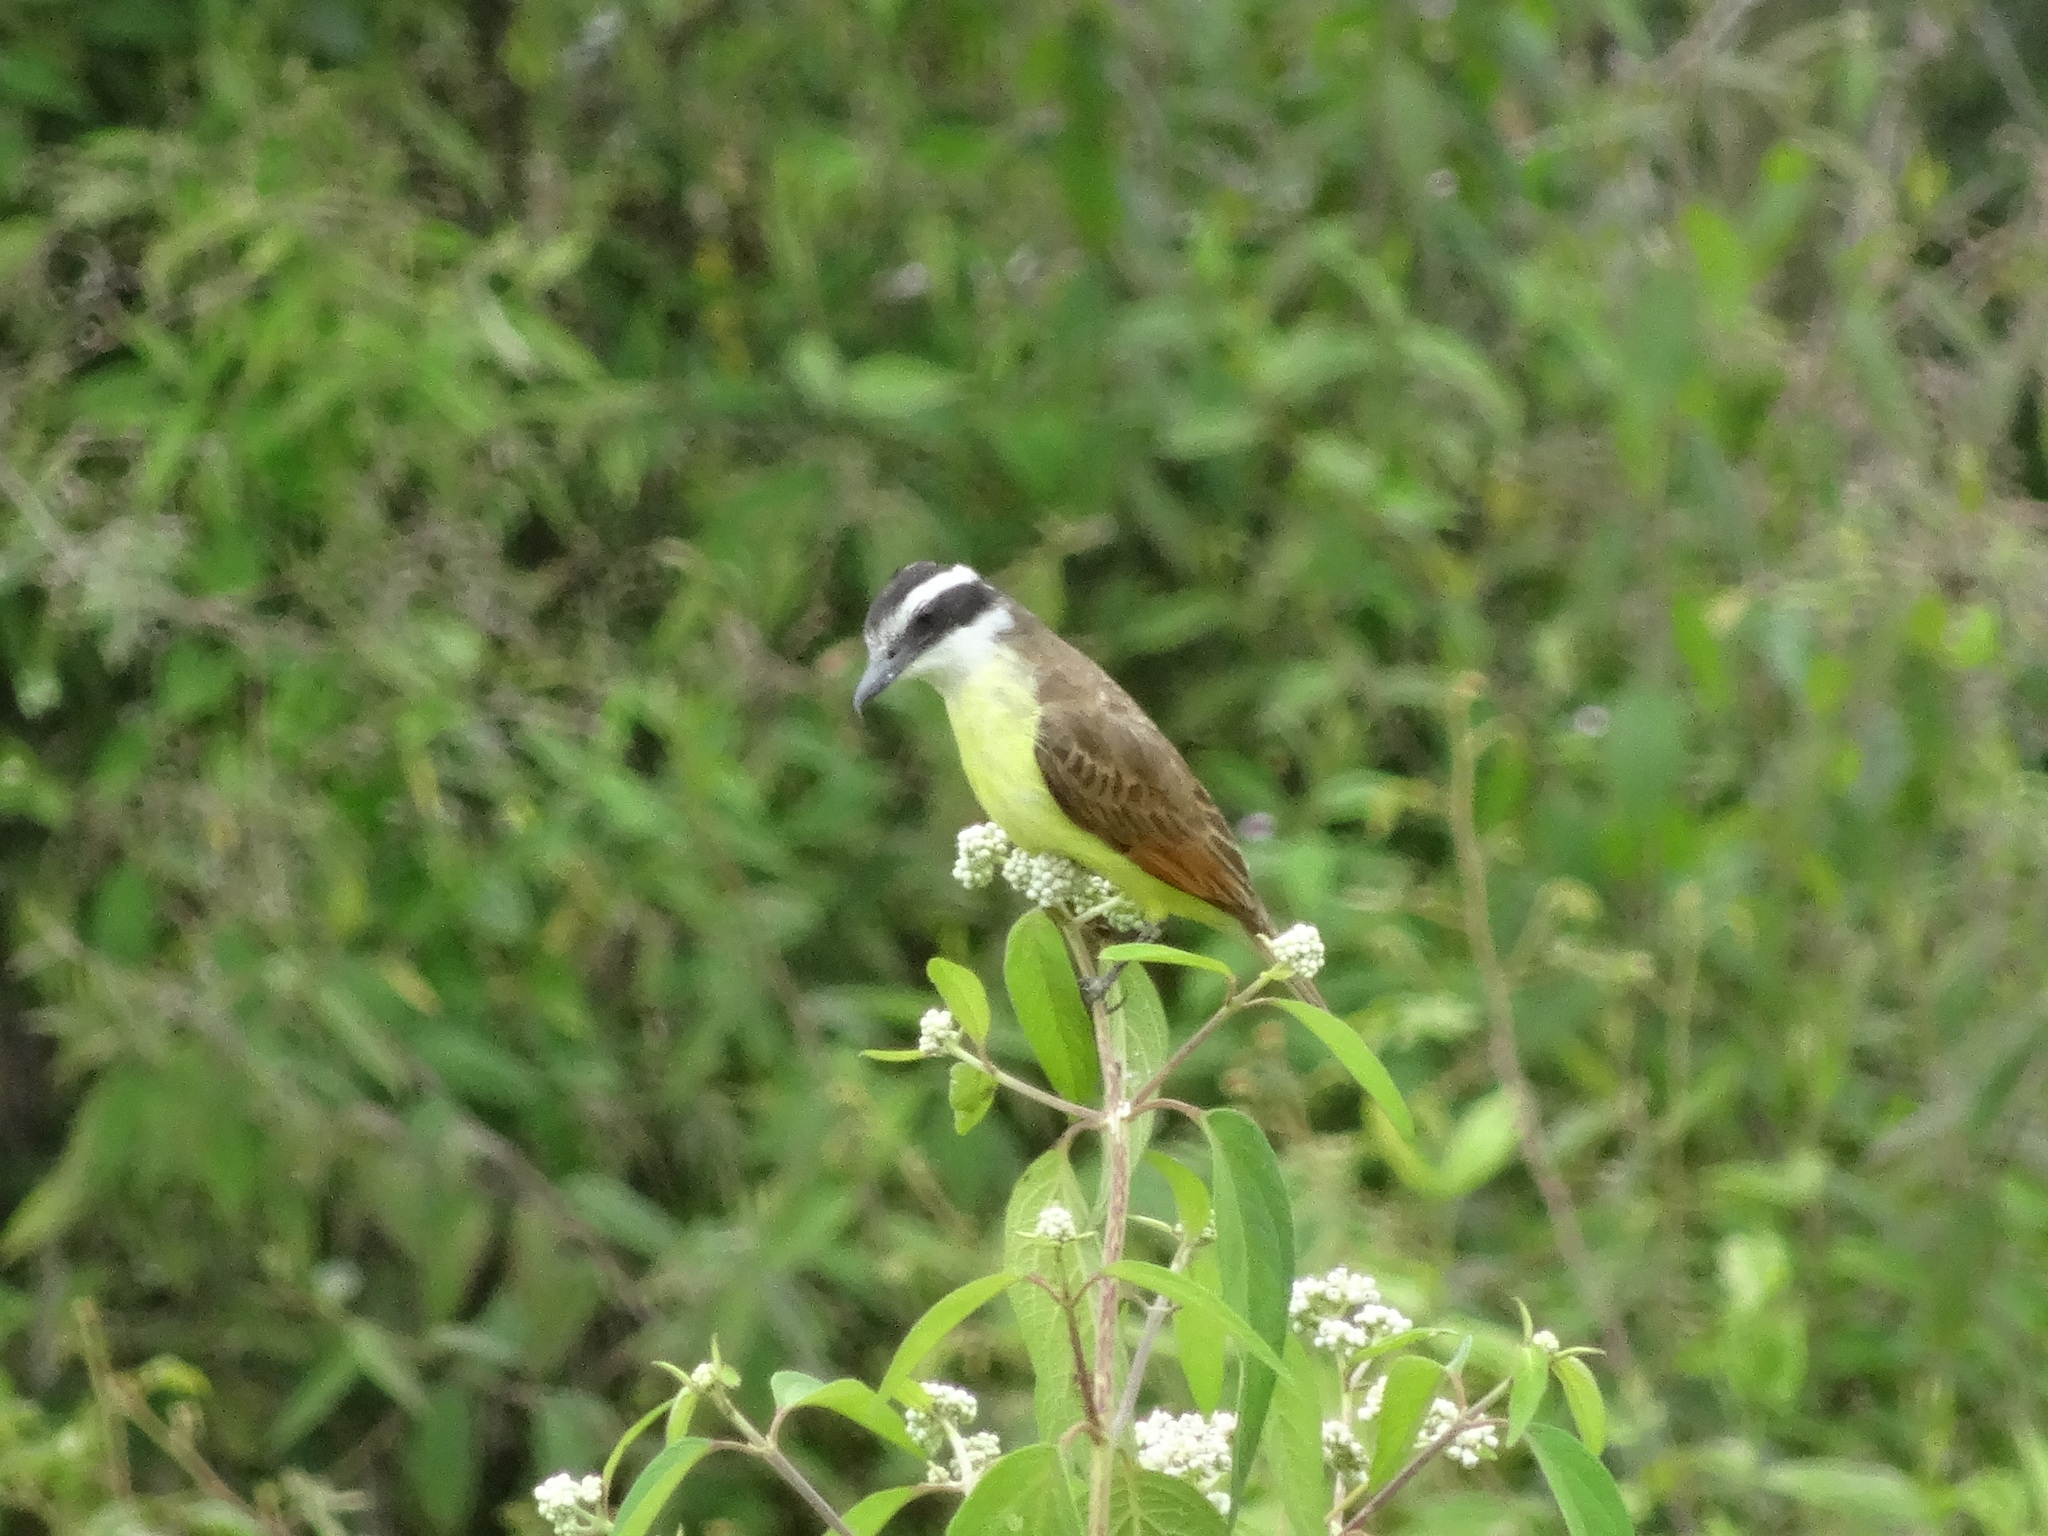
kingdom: Animalia
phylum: Chordata
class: Aves
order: Passeriformes
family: Tyrannidae
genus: Pitangus
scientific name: Pitangus sulphuratus
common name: Great kiskadee
